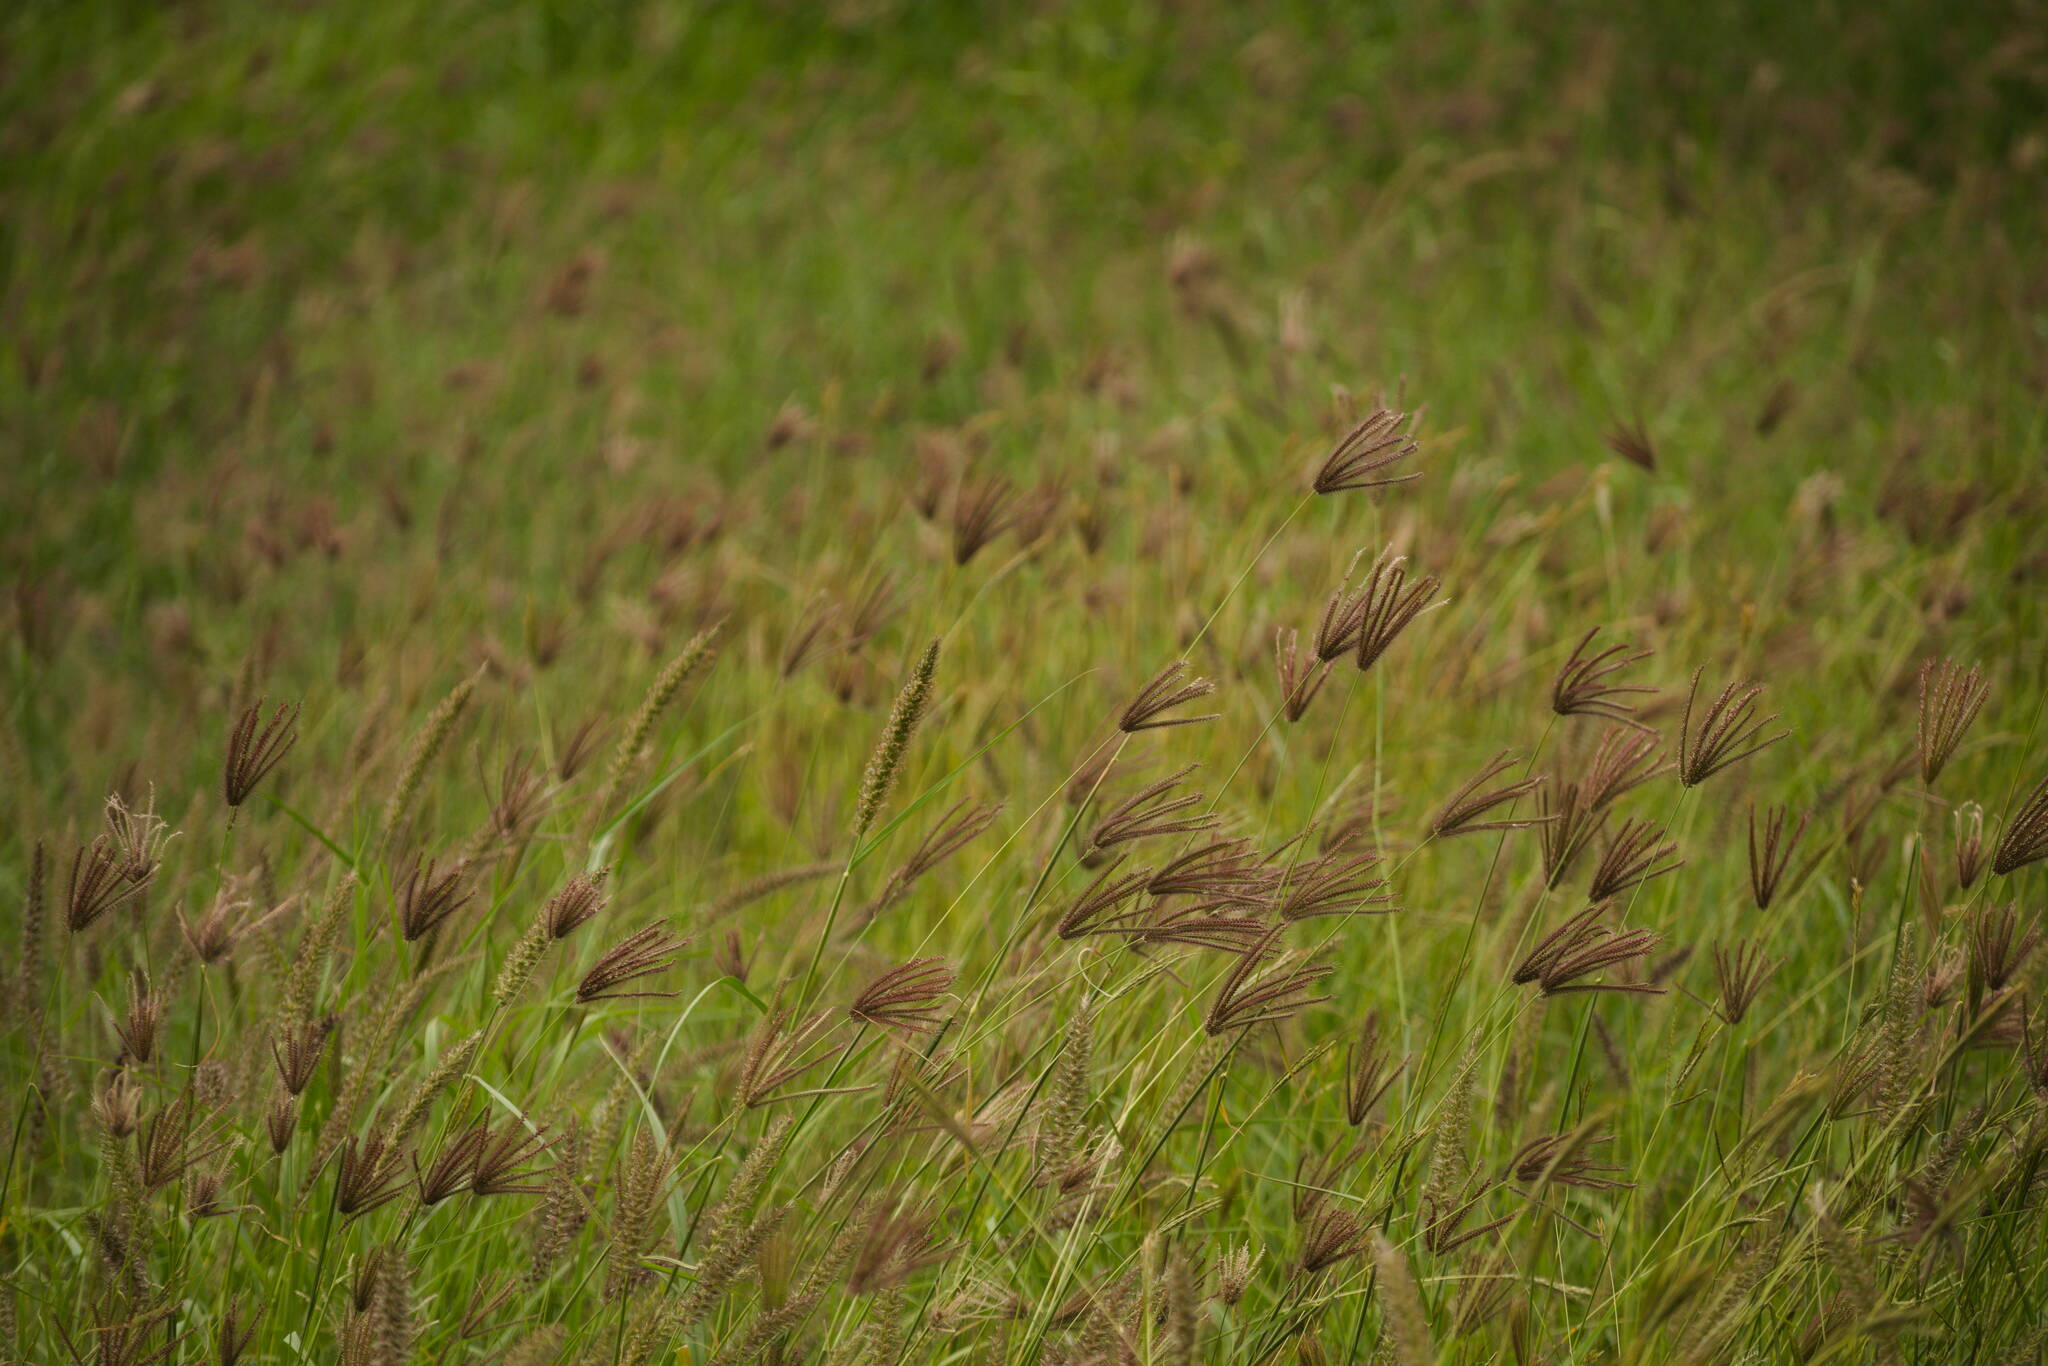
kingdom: Plantae
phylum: Tracheophyta
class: Liliopsida
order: Poales
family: Poaceae
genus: Chloris
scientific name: Chloris barbata
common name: Swollen fingergrass
